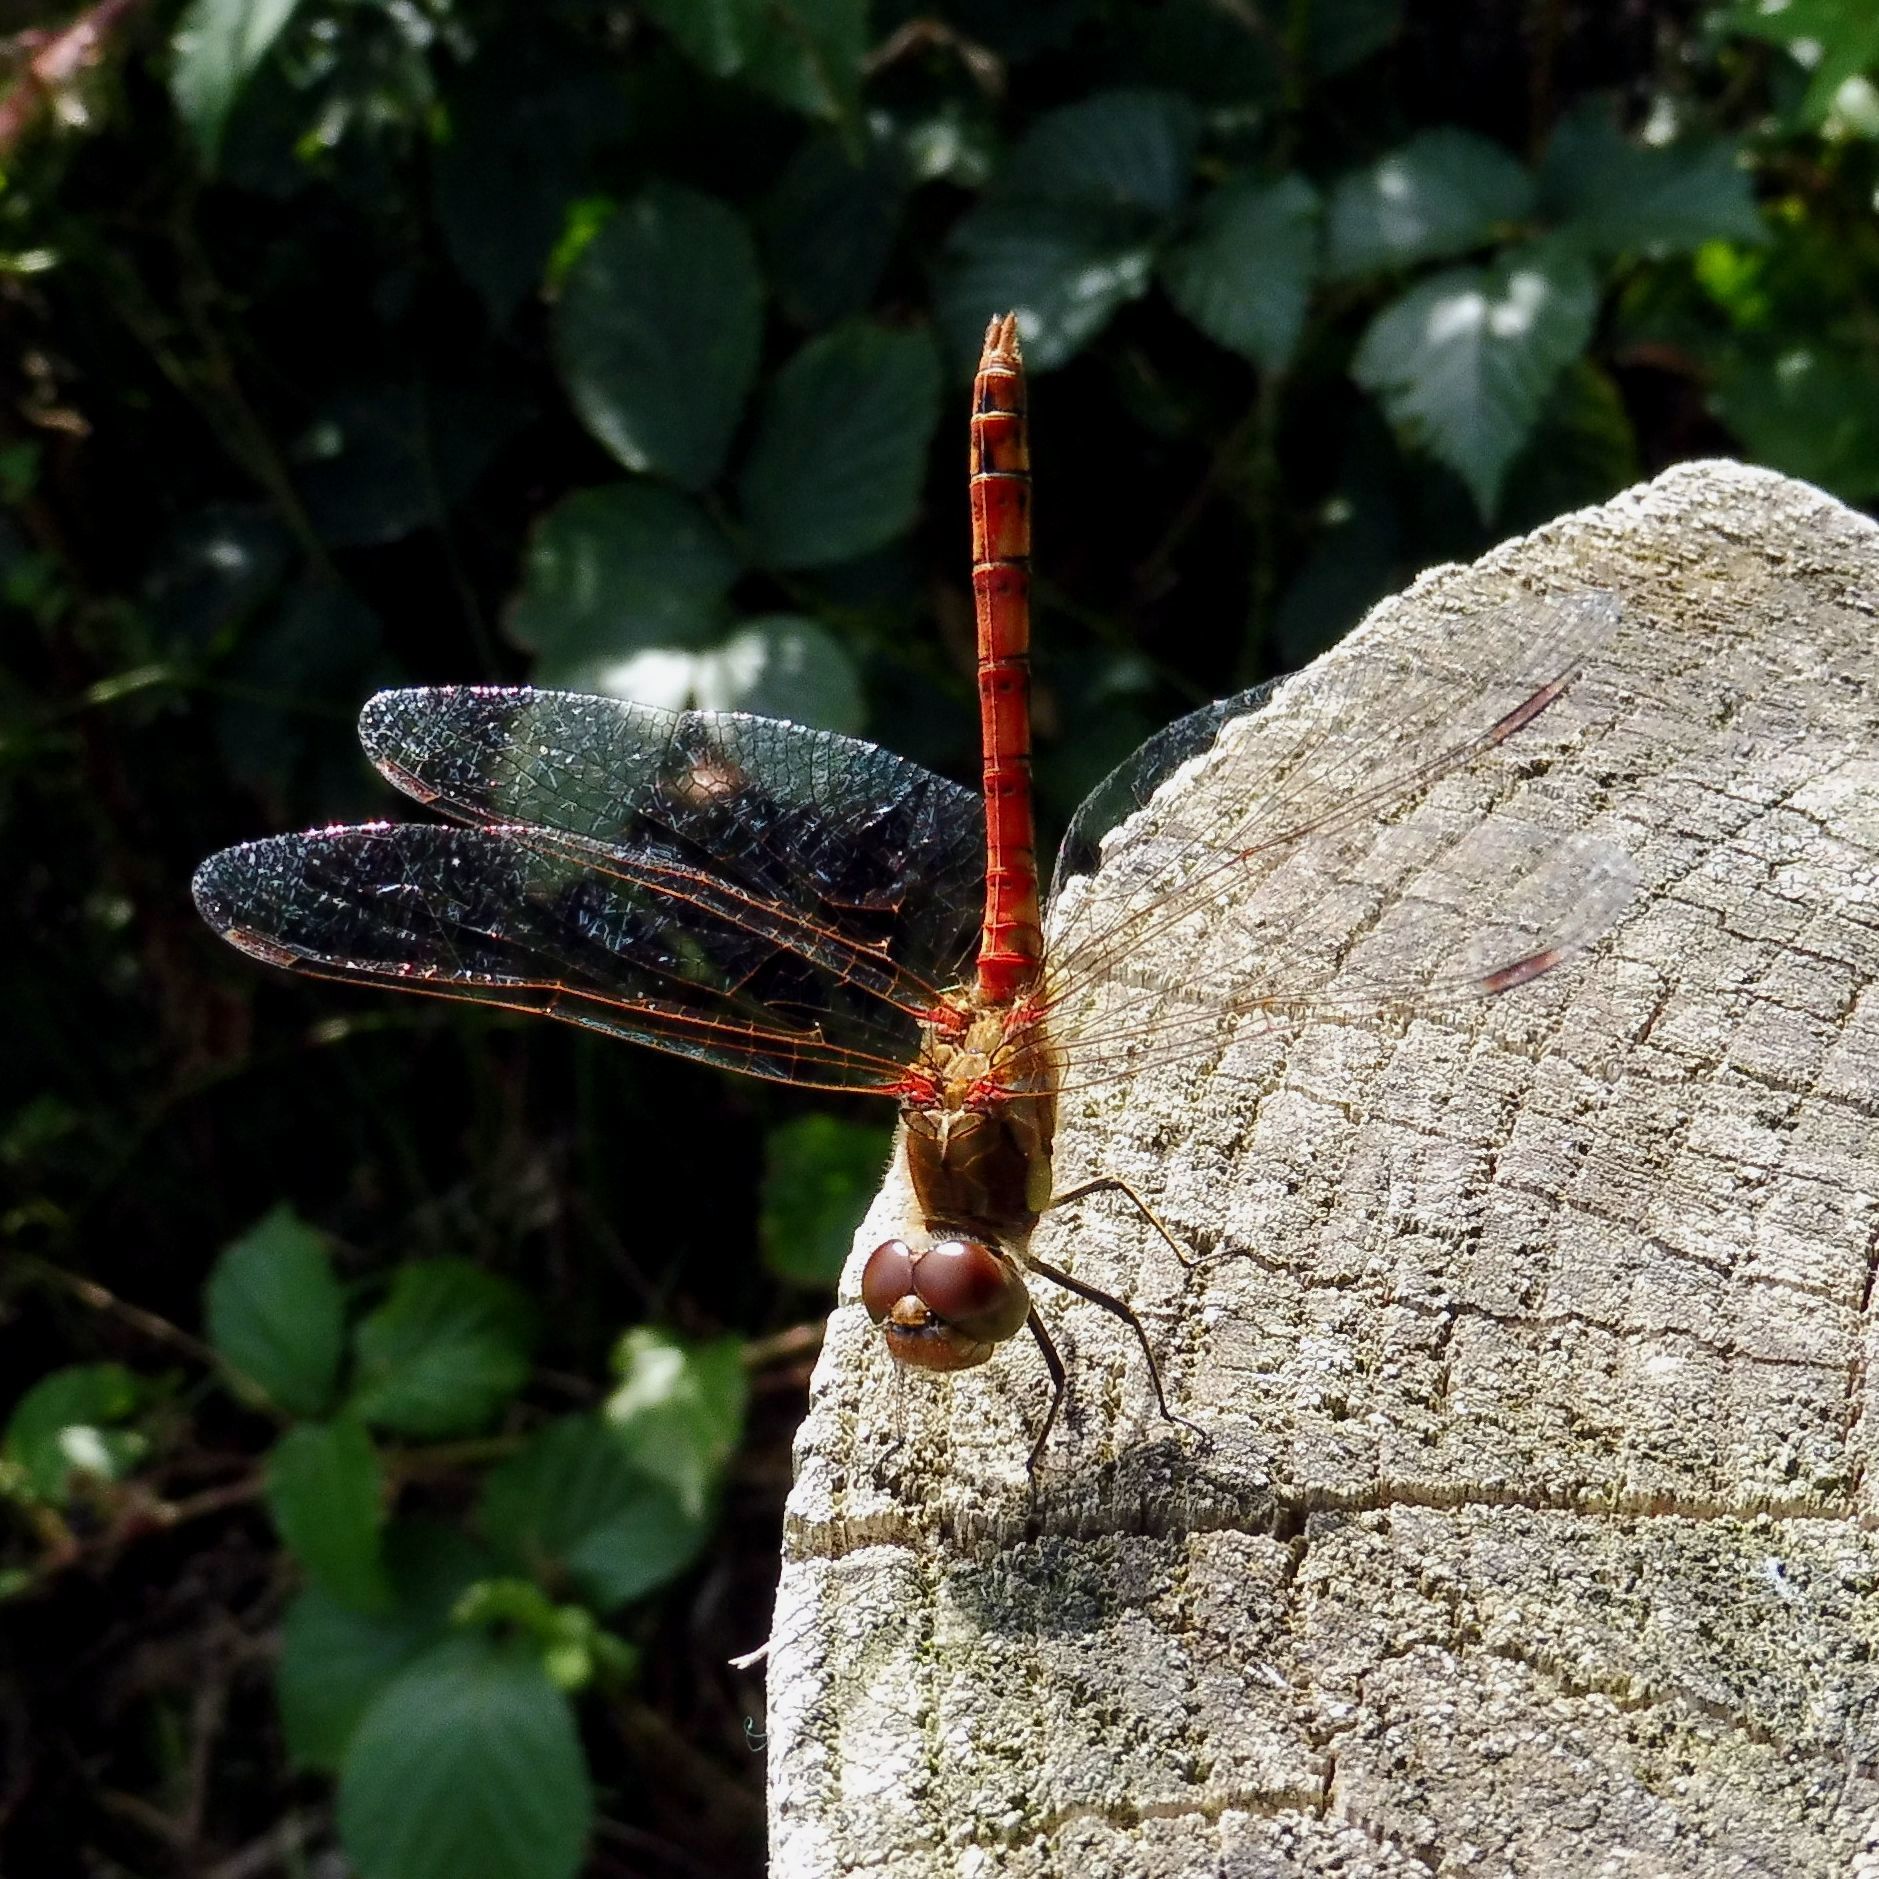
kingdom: Animalia
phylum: Arthropoda
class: Insecta
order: Odonata
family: Libellulidae
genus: Sympetrum
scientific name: Sympetrum striolatum
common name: Common darter
